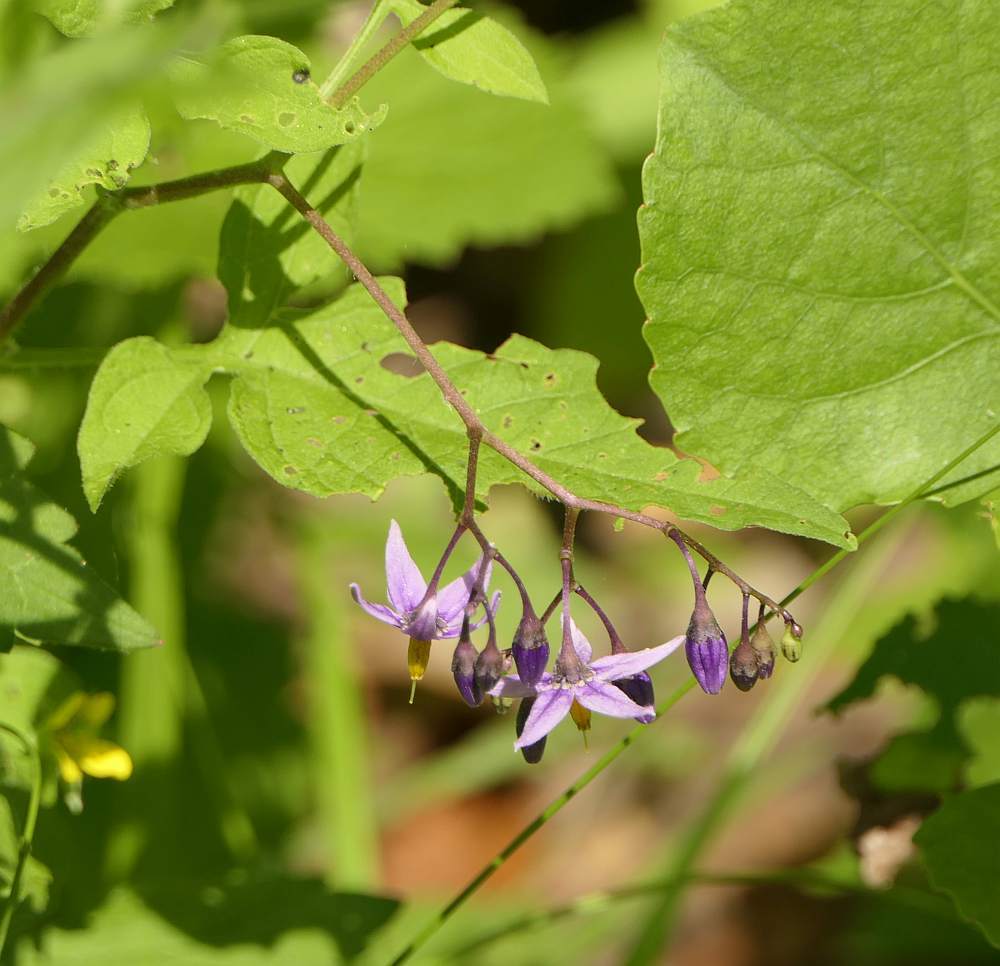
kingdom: Plantae
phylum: Tracheophyta
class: Magnoliopsida
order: Solanales
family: Solanaceae
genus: Solanum
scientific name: Solanum dulcamara
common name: Climbing nightshade
